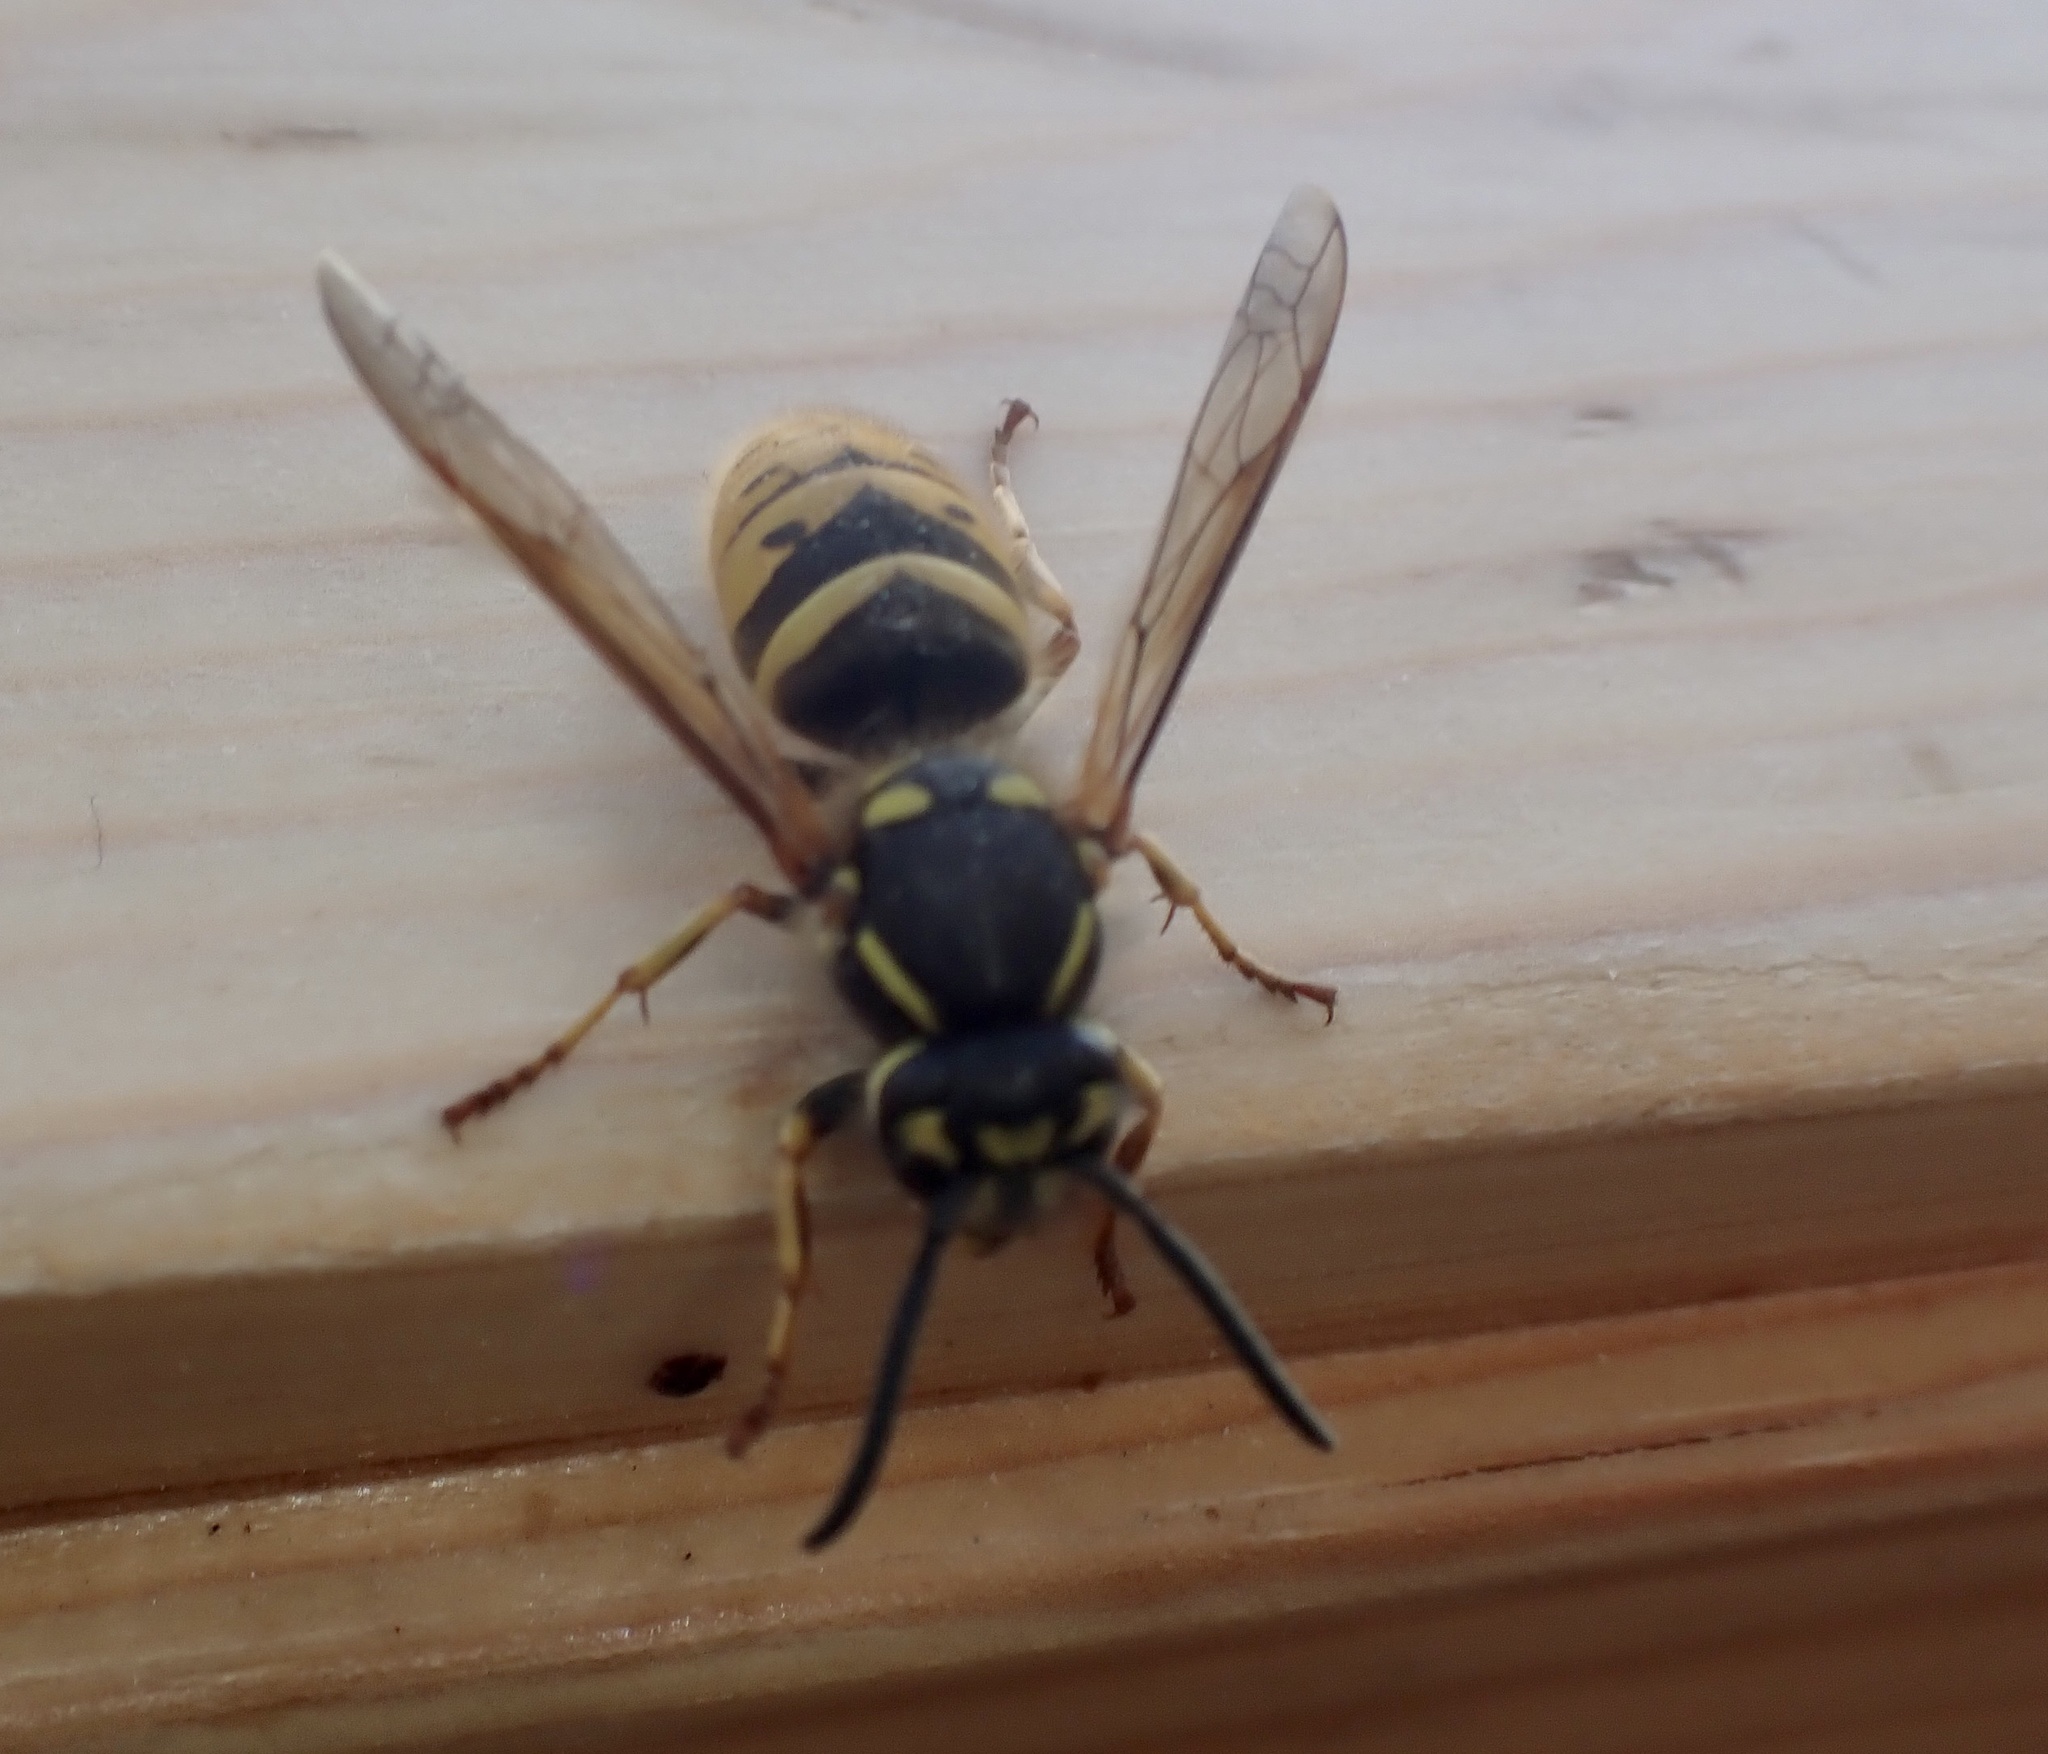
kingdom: Animalia
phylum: Arthropoda
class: Insecta
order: Hymenoptera
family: Vespidae
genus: Vespula
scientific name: Vespula vulgaris
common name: Common wasp
